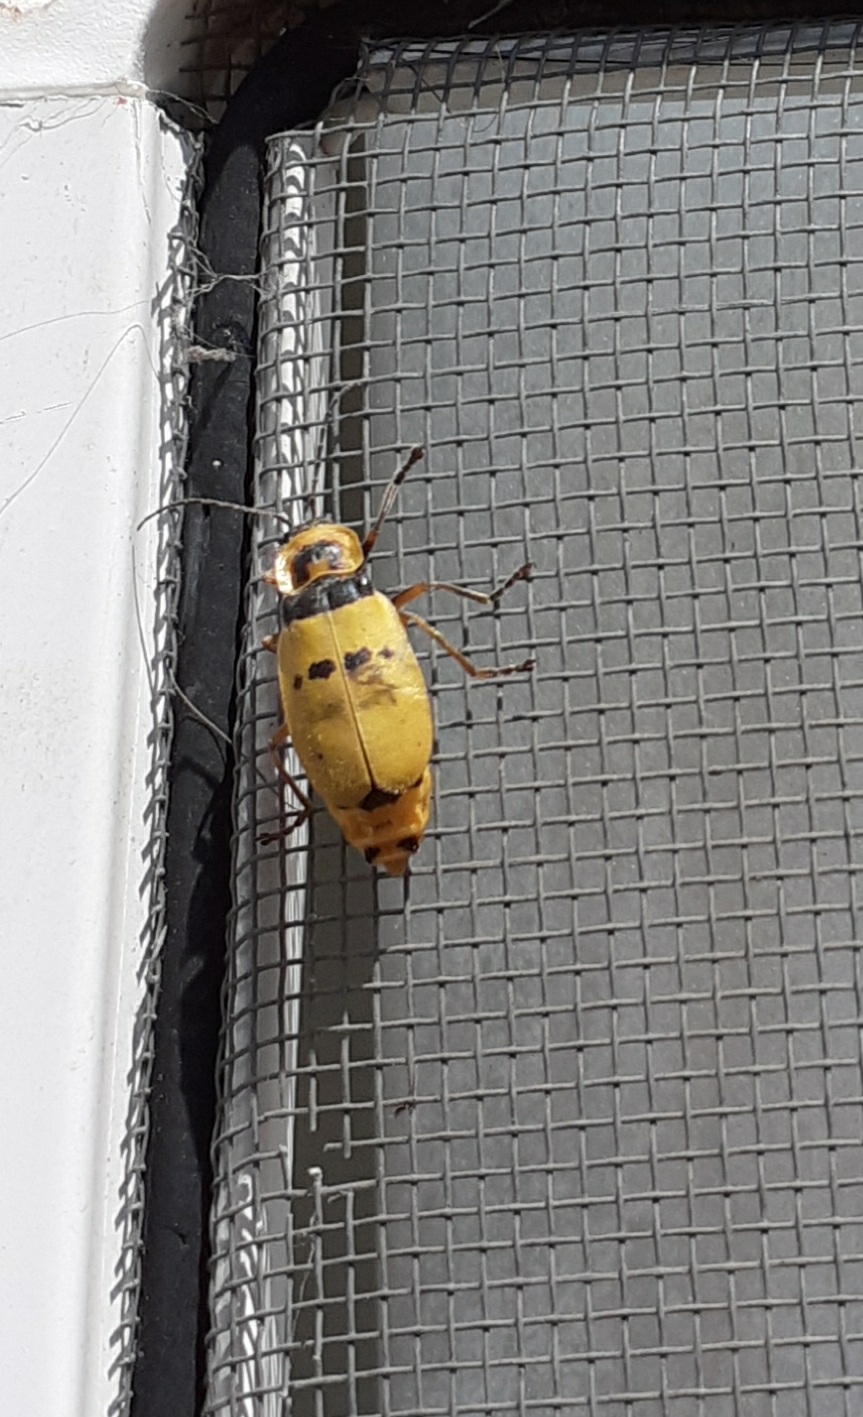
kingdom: Animalia
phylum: Arthropoda
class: Insecta
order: Coleoptera
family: Cantharidae
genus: Chauliognathus
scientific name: Chauliognathus
